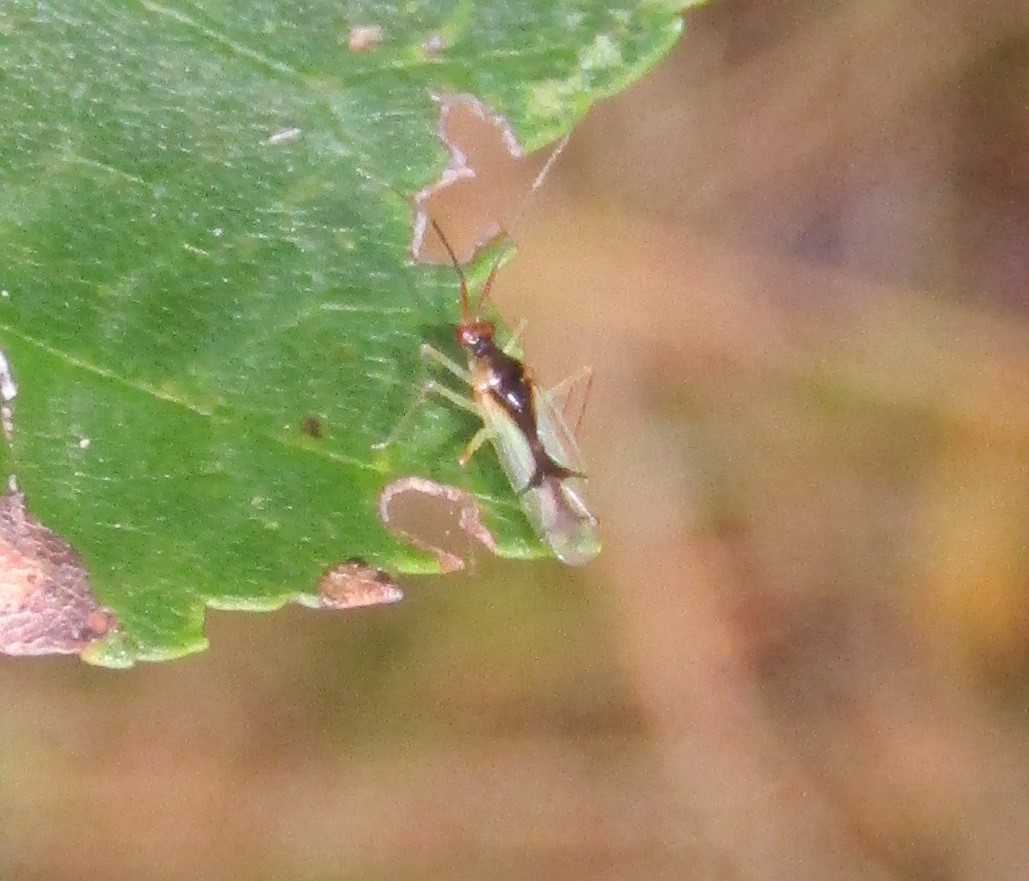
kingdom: Animalia
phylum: Arthropoda
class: Insecta
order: Hemiptera
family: Miridae
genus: Hyaliodes
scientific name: Hyaliodes harti
